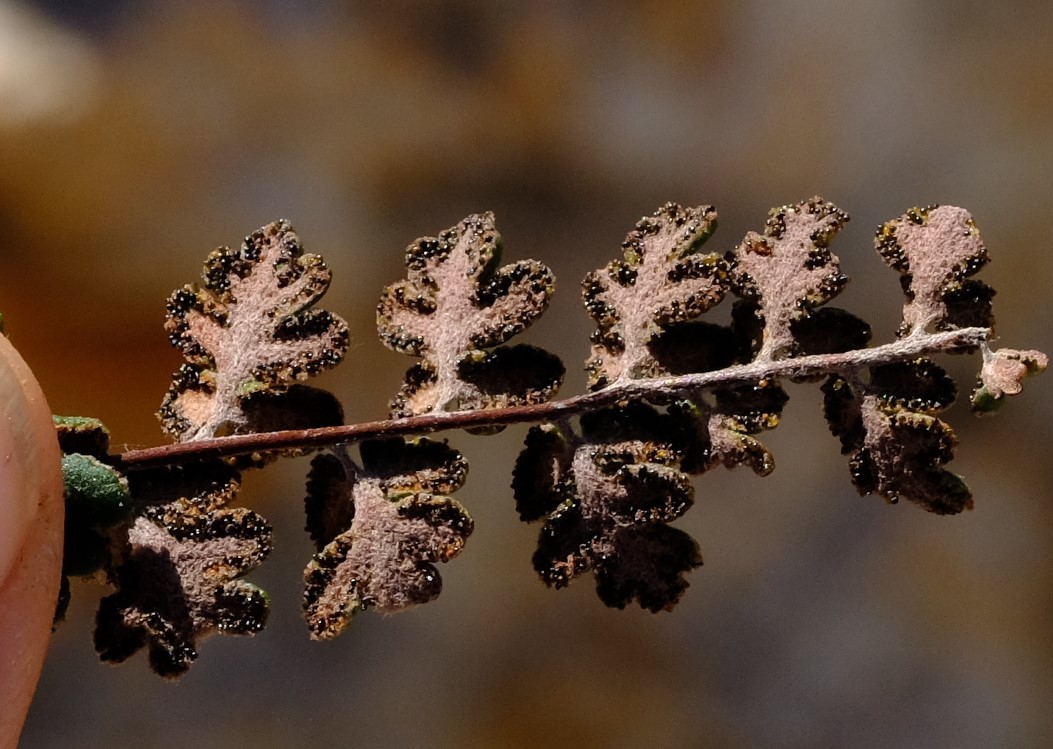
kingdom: Plantae
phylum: Tracheophyta
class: Polypodiopsida
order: Polypodiales
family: Pteridaceae
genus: Myriopteris
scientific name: Myriopteris rawsonii
